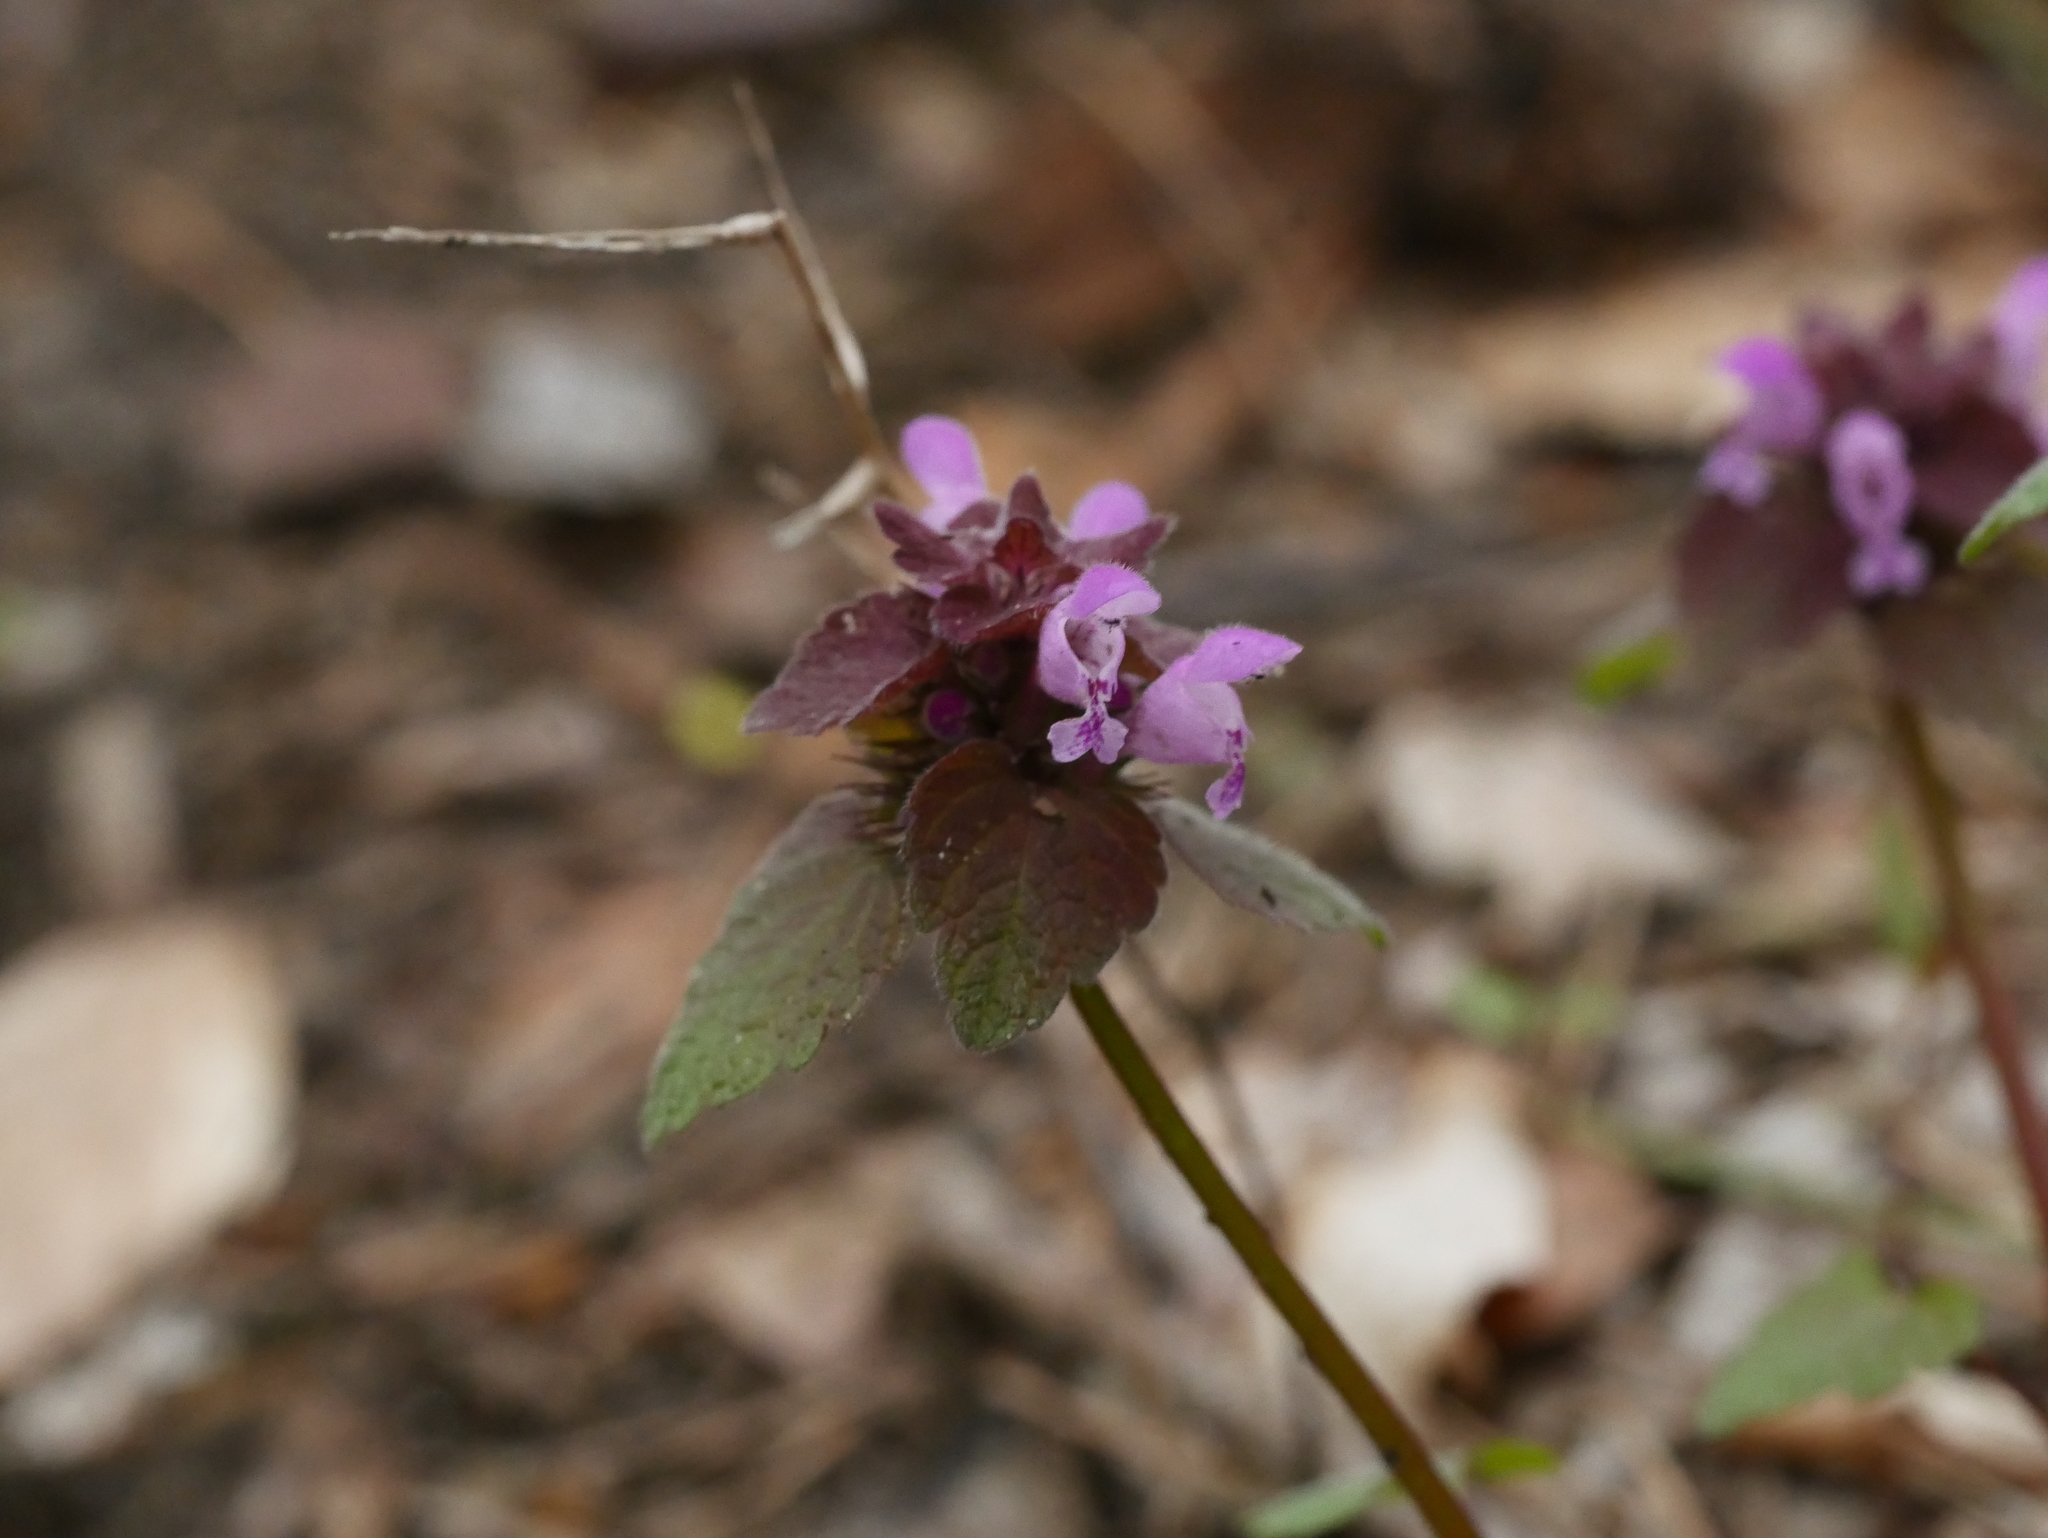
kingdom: Plantae
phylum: Tracheophyta
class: Magnoliopsida
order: Lamiales
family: Lamiaceae
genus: Lamium
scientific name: Lamium purpureum
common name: Red dead-nettle
